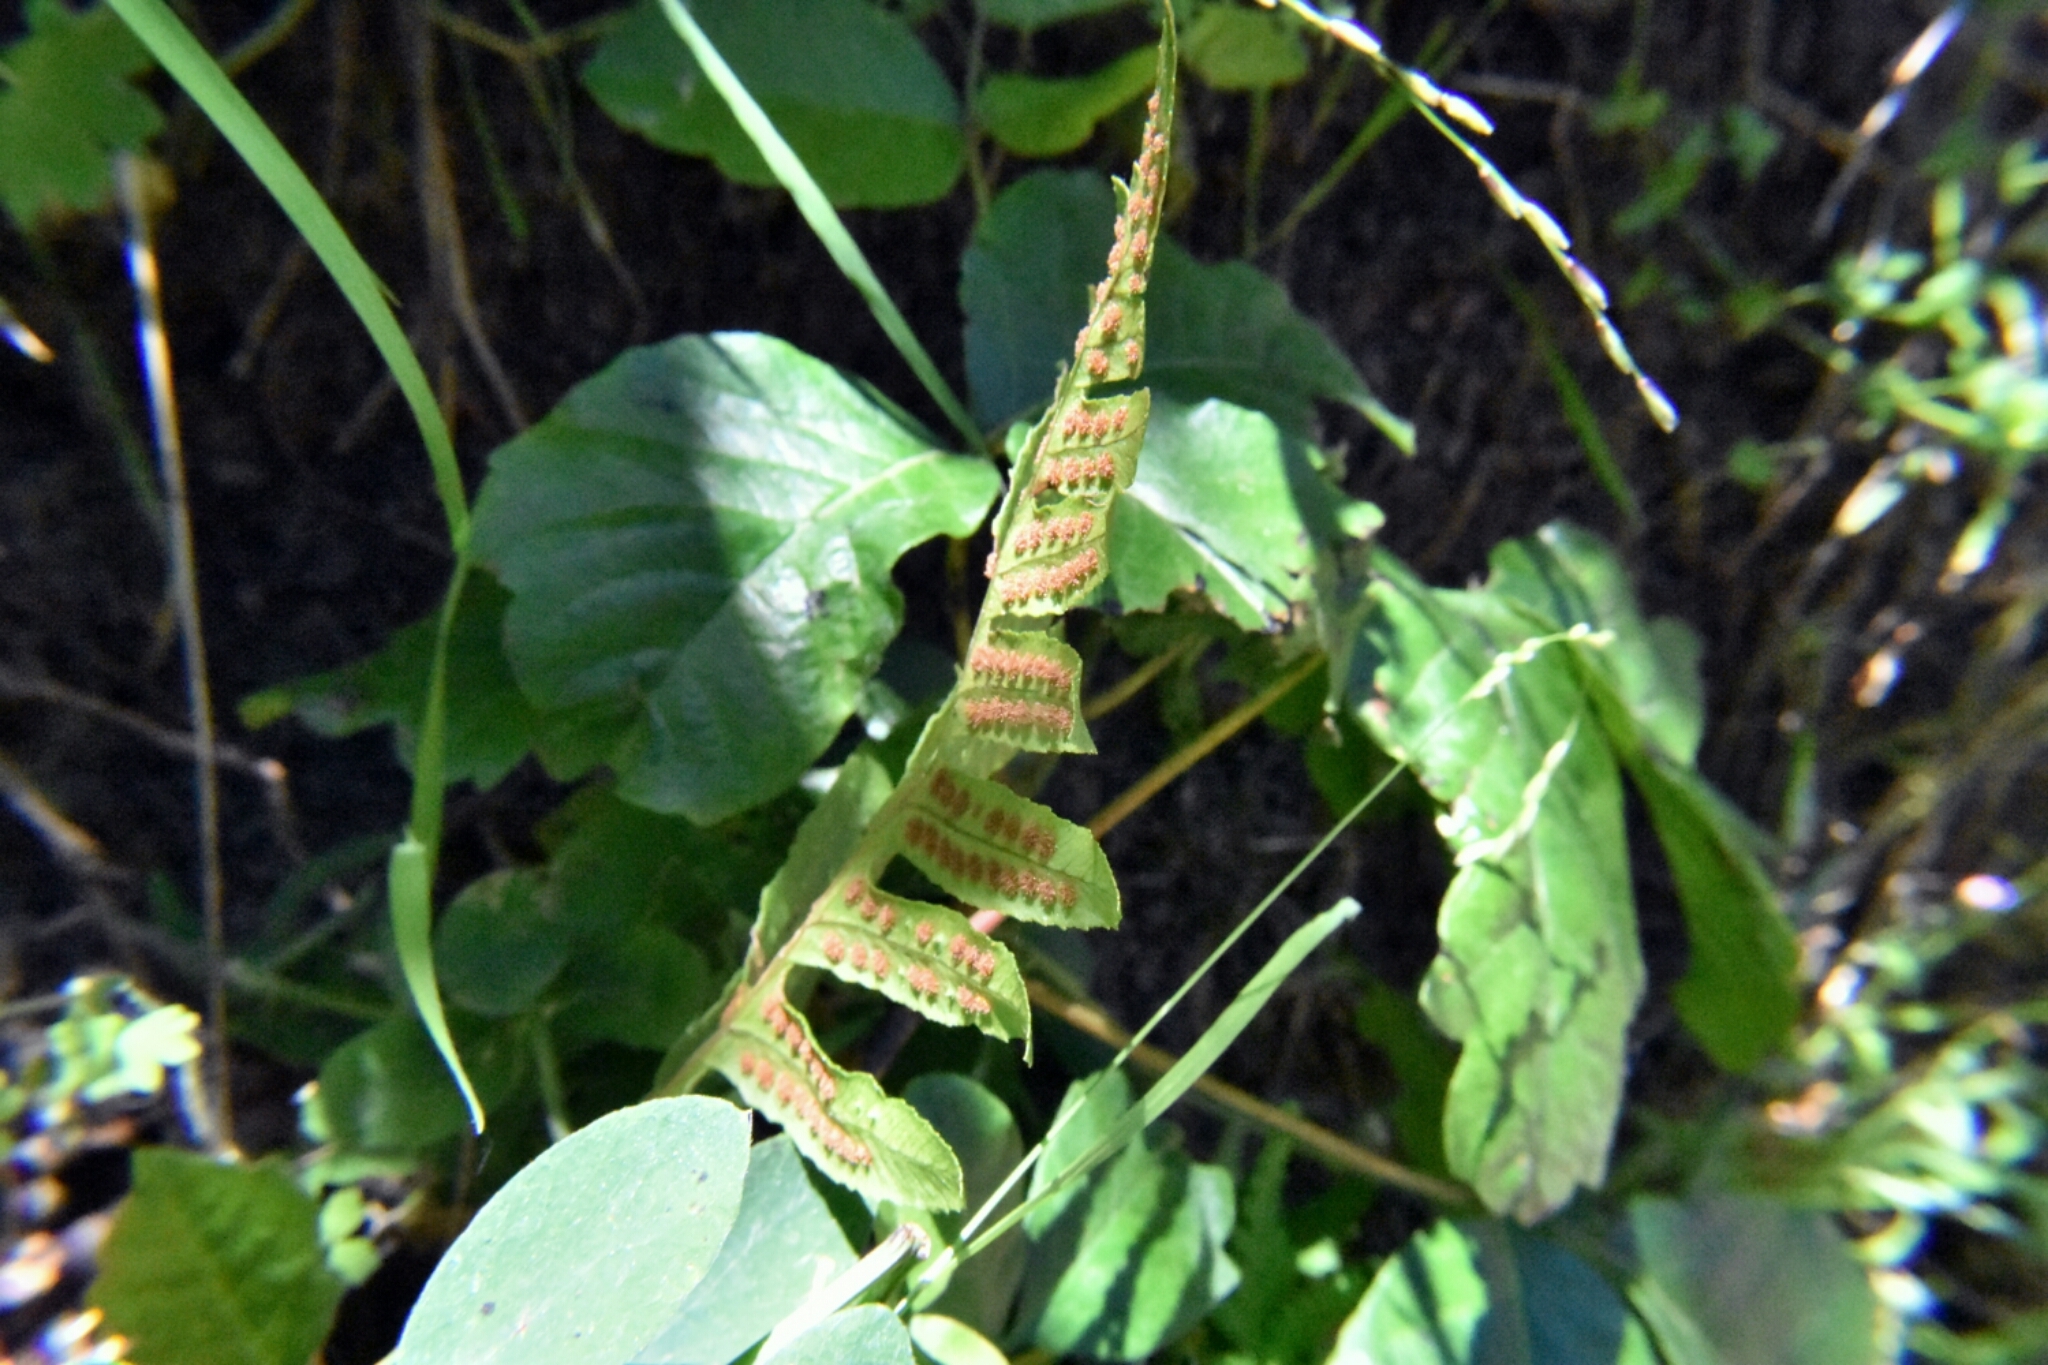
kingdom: Plantae
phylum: Tracheophyta
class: Polypodiopsida
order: Polypodiales
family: Polypodiaceae
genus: Polypodium
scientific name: Polypodium californicum
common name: California polypody
